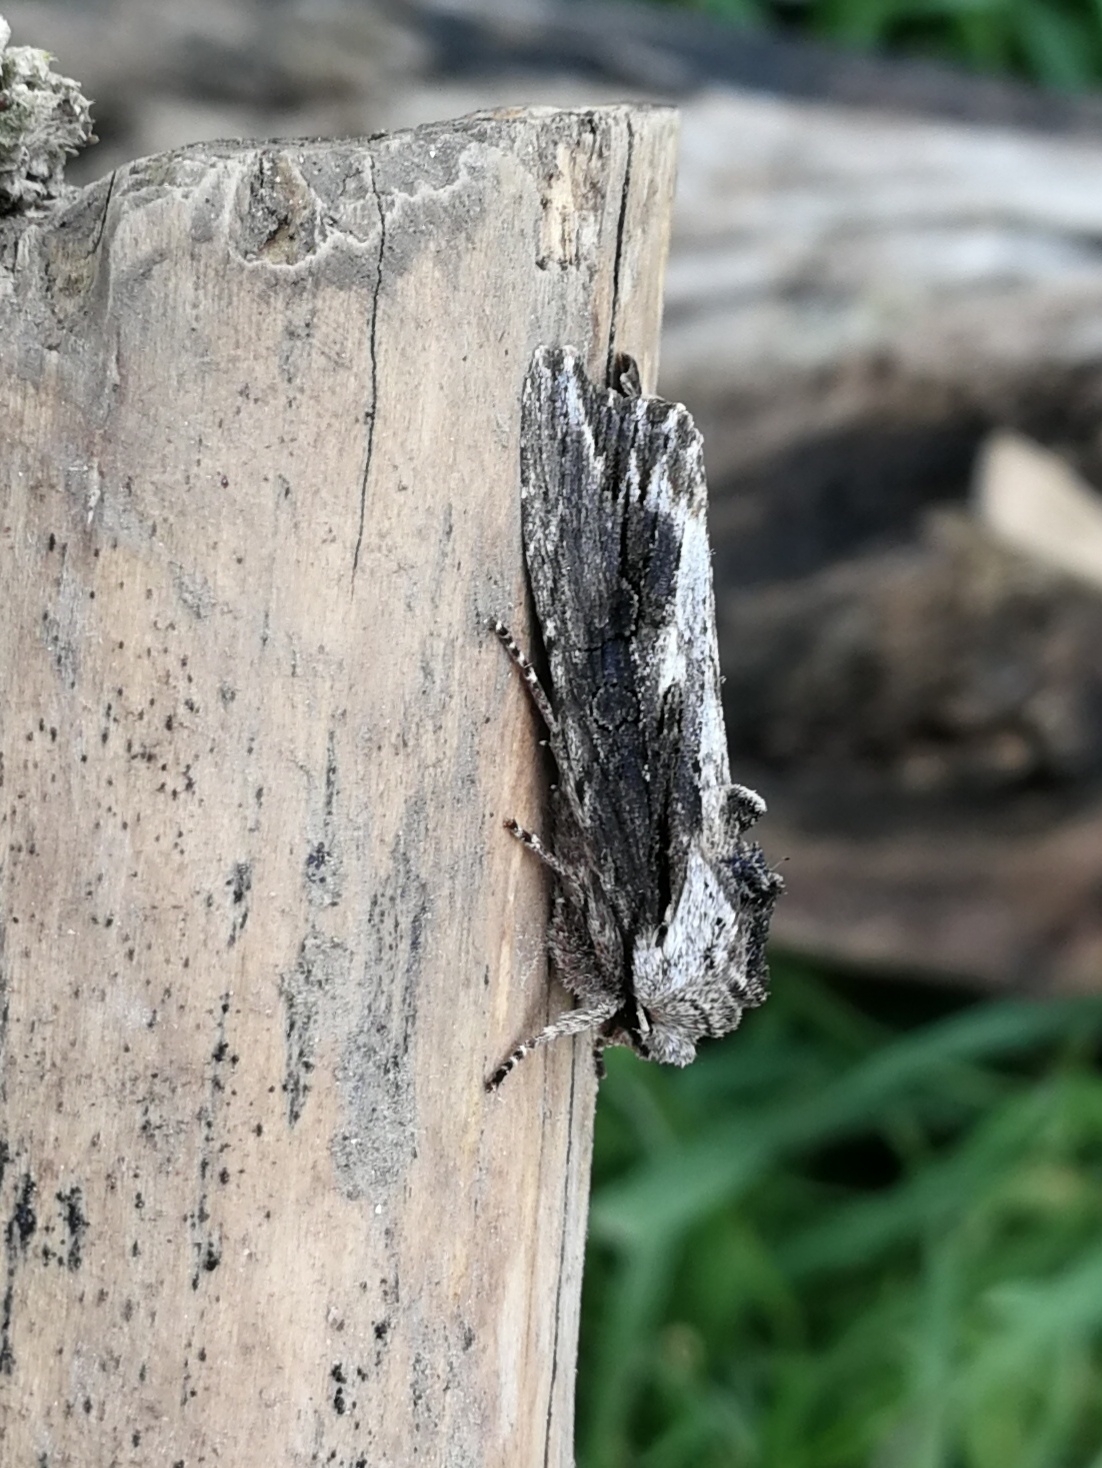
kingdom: Animalia
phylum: Arthropoda
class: Insecta
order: Lepidoptera
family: Noctuidae
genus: Egira
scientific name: Egira conspicillaris
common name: Silver cloud
